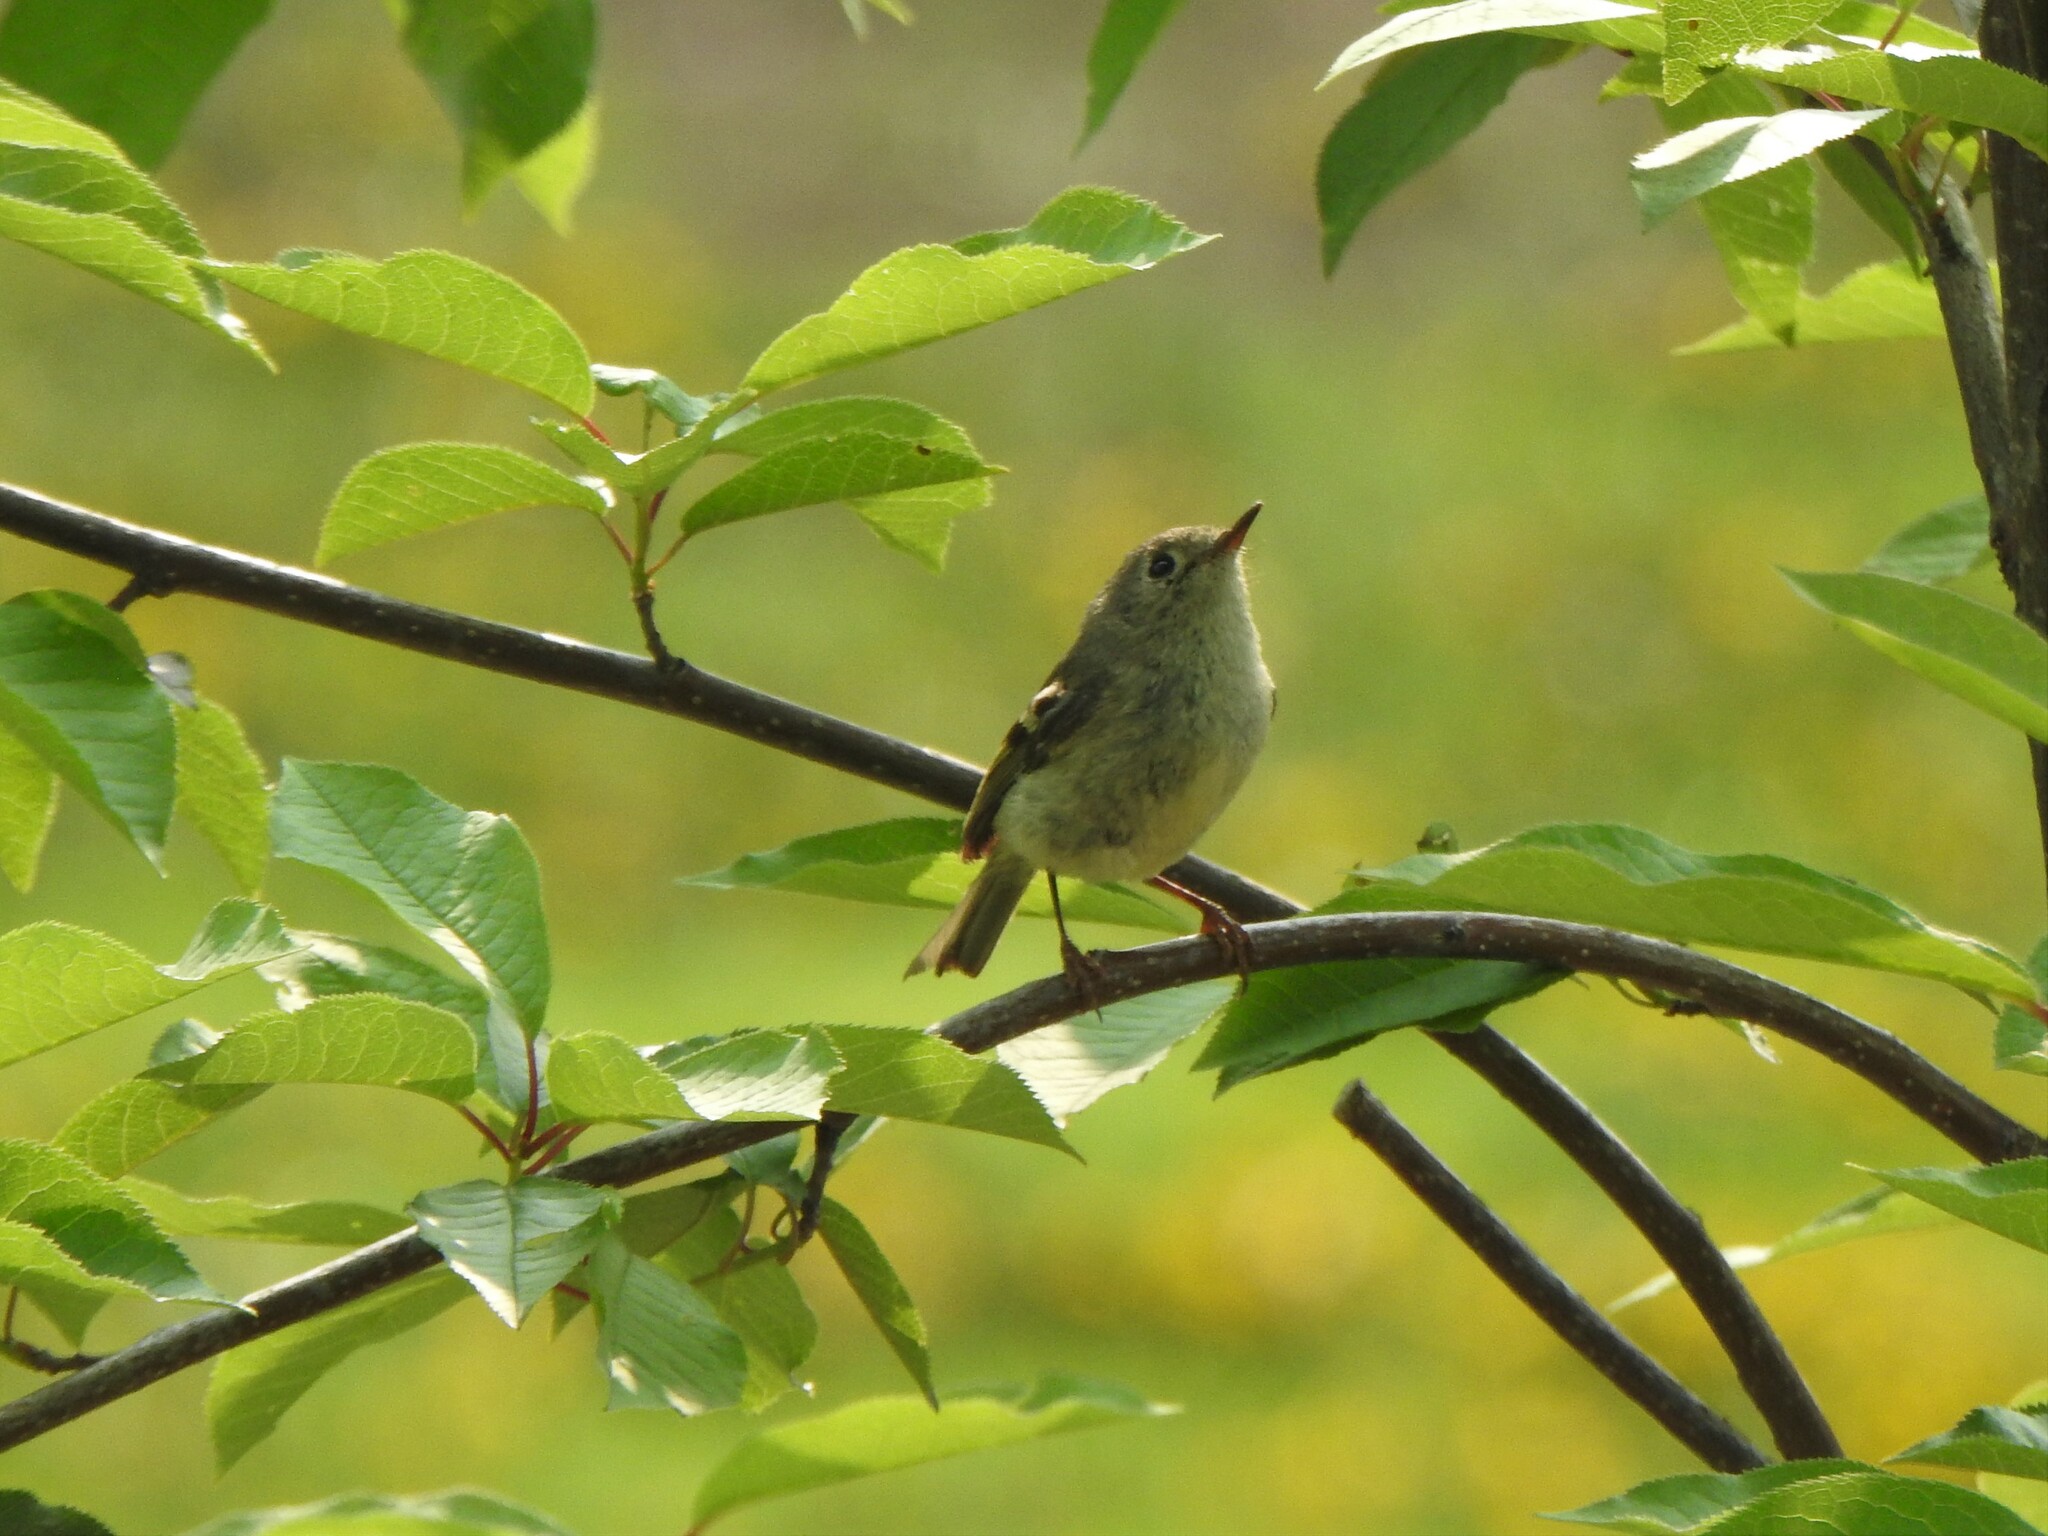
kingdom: Animalia
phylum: Chordata
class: Aves
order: Passeriformes
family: Regulidae
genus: Regulus
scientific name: Regulus calendula
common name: Ruby-crowned kinglet
